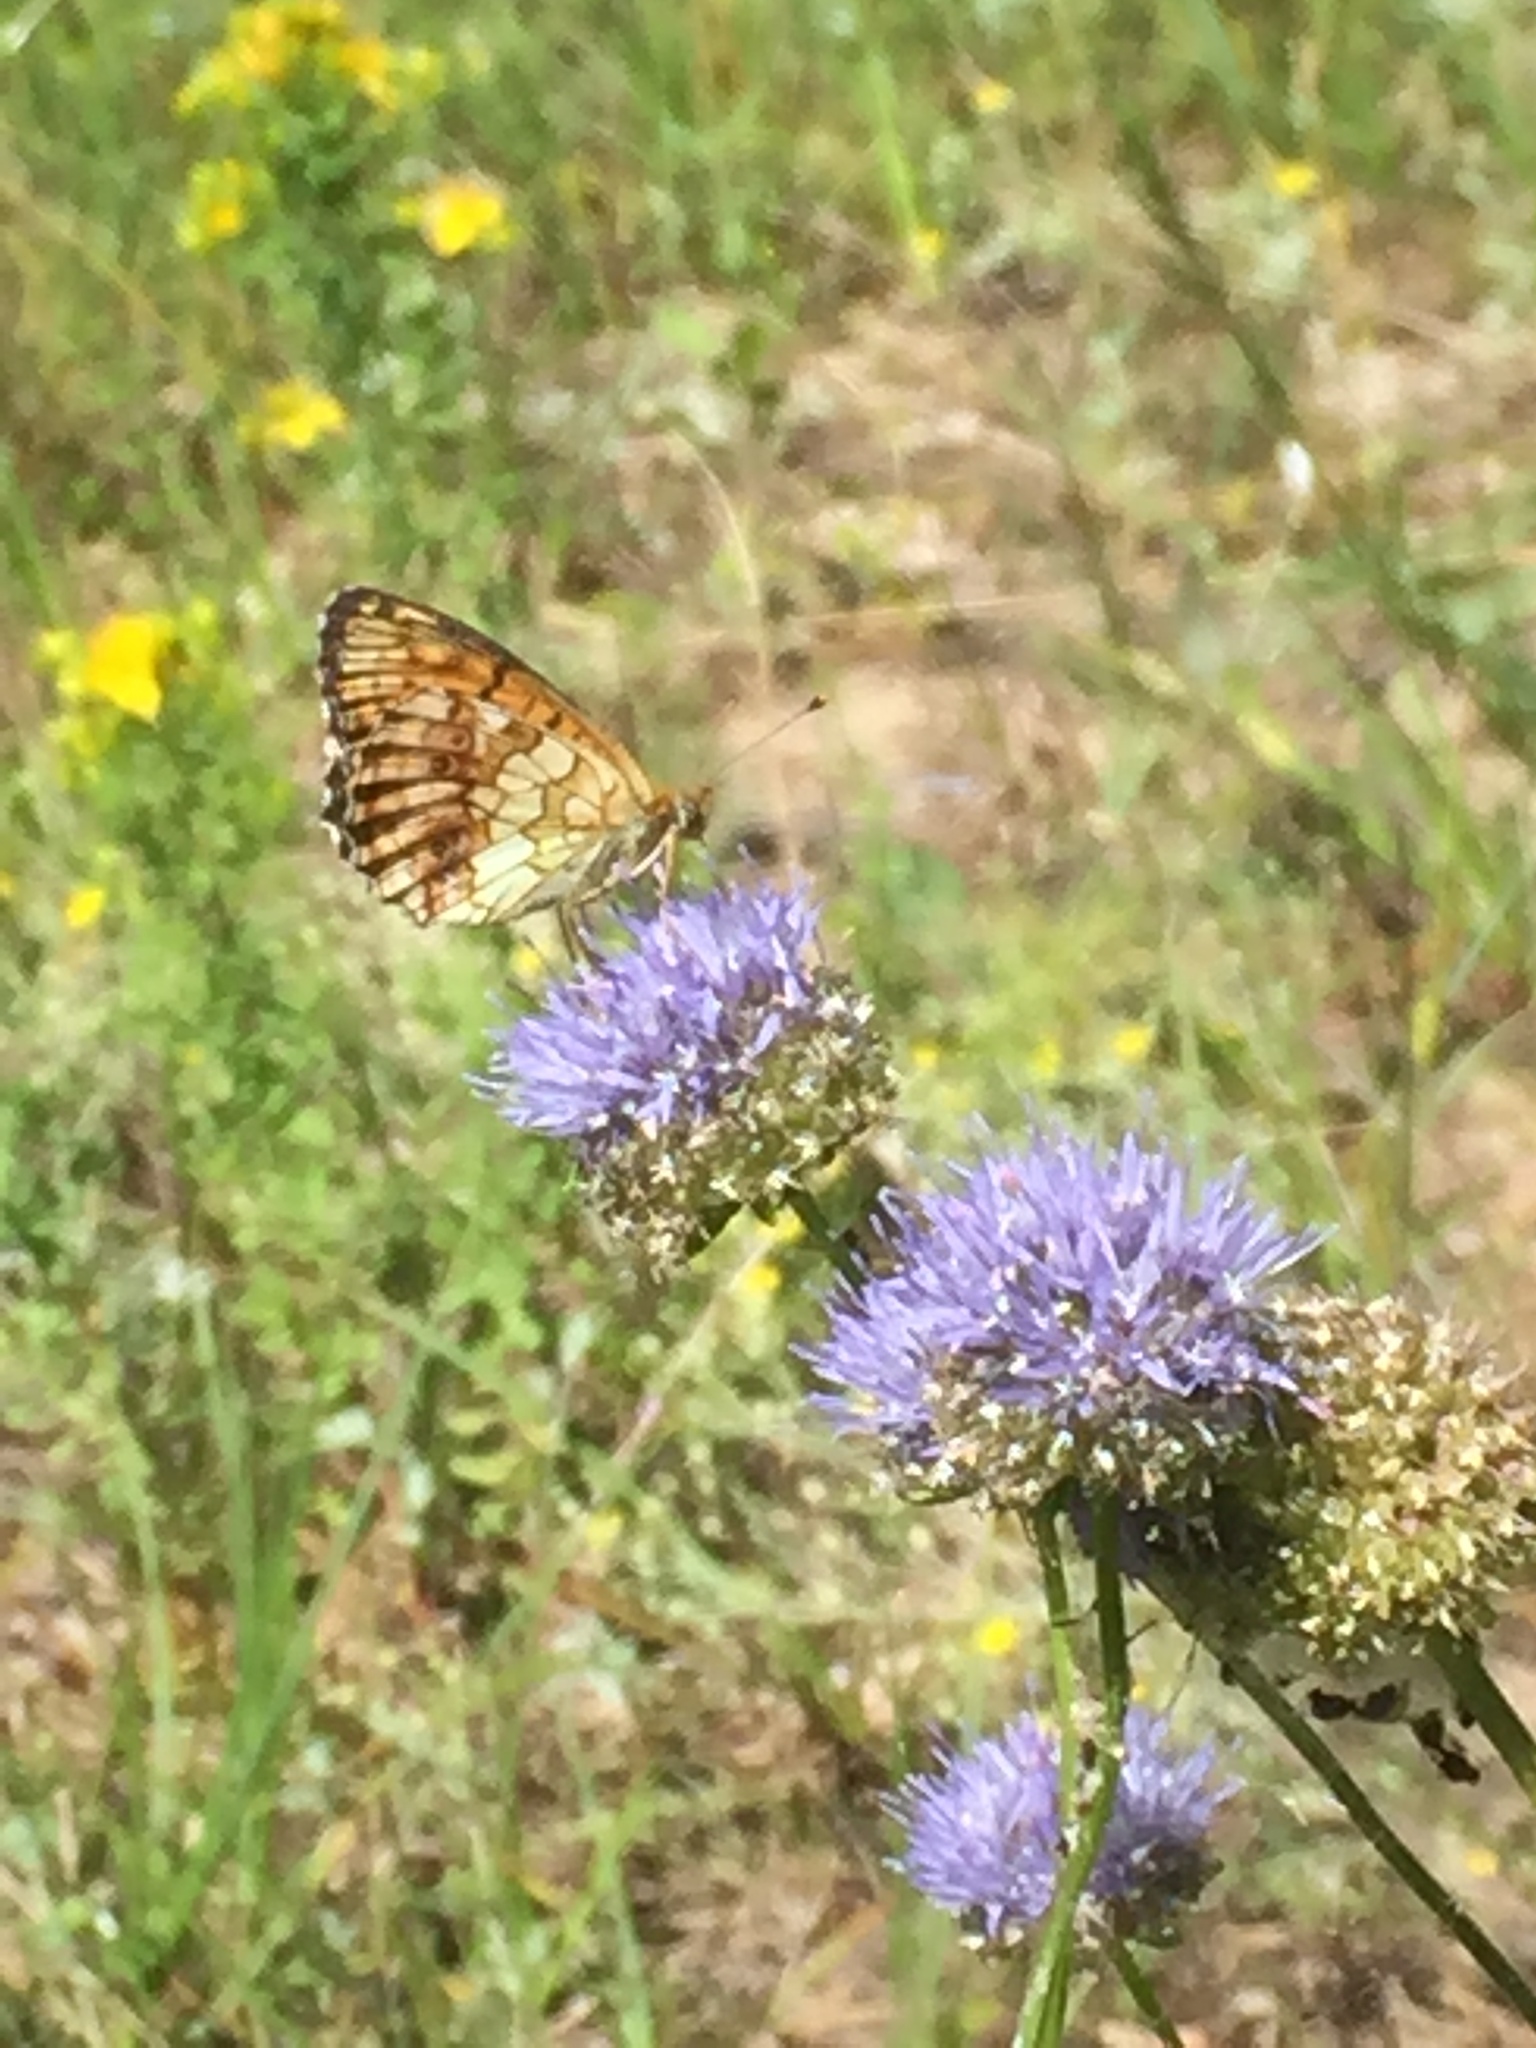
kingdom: Animalia
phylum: Arthropoda
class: Insecta
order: Lepidoptera
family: Nymphalidae
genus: Brenthis
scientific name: Brenthis ino
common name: Lesser marbled fritillary
